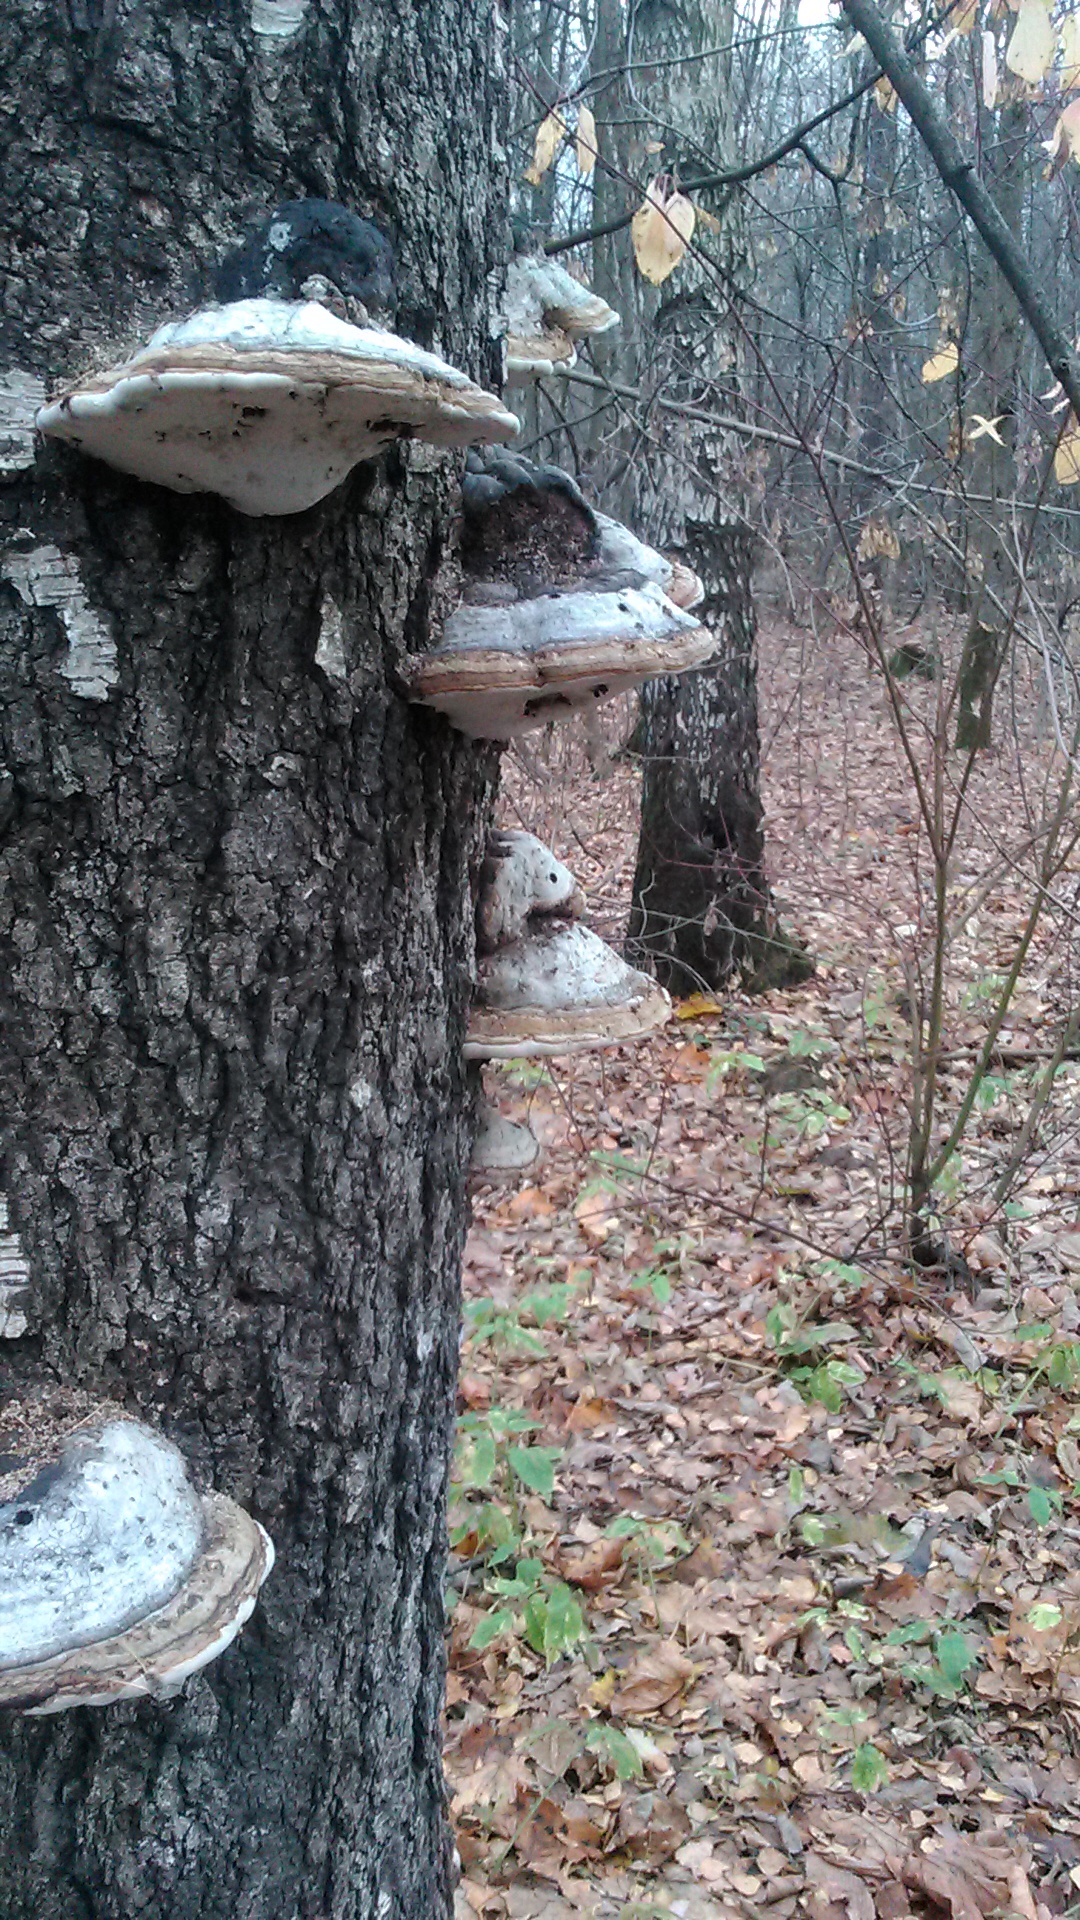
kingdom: Fungi
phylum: Basidiomycota
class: Agaricomycetes
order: Polyporales
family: Polyporaceae
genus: Fomes
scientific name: Fomes fomentarius
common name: Hoof fungus
